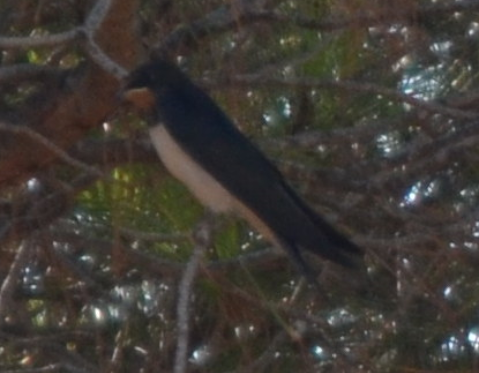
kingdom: Animalia
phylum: Chordata
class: Aves
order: Passeriformes
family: Hirundinidae
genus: Hirundo
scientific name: Hirundo rustica
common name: Barn swallow
